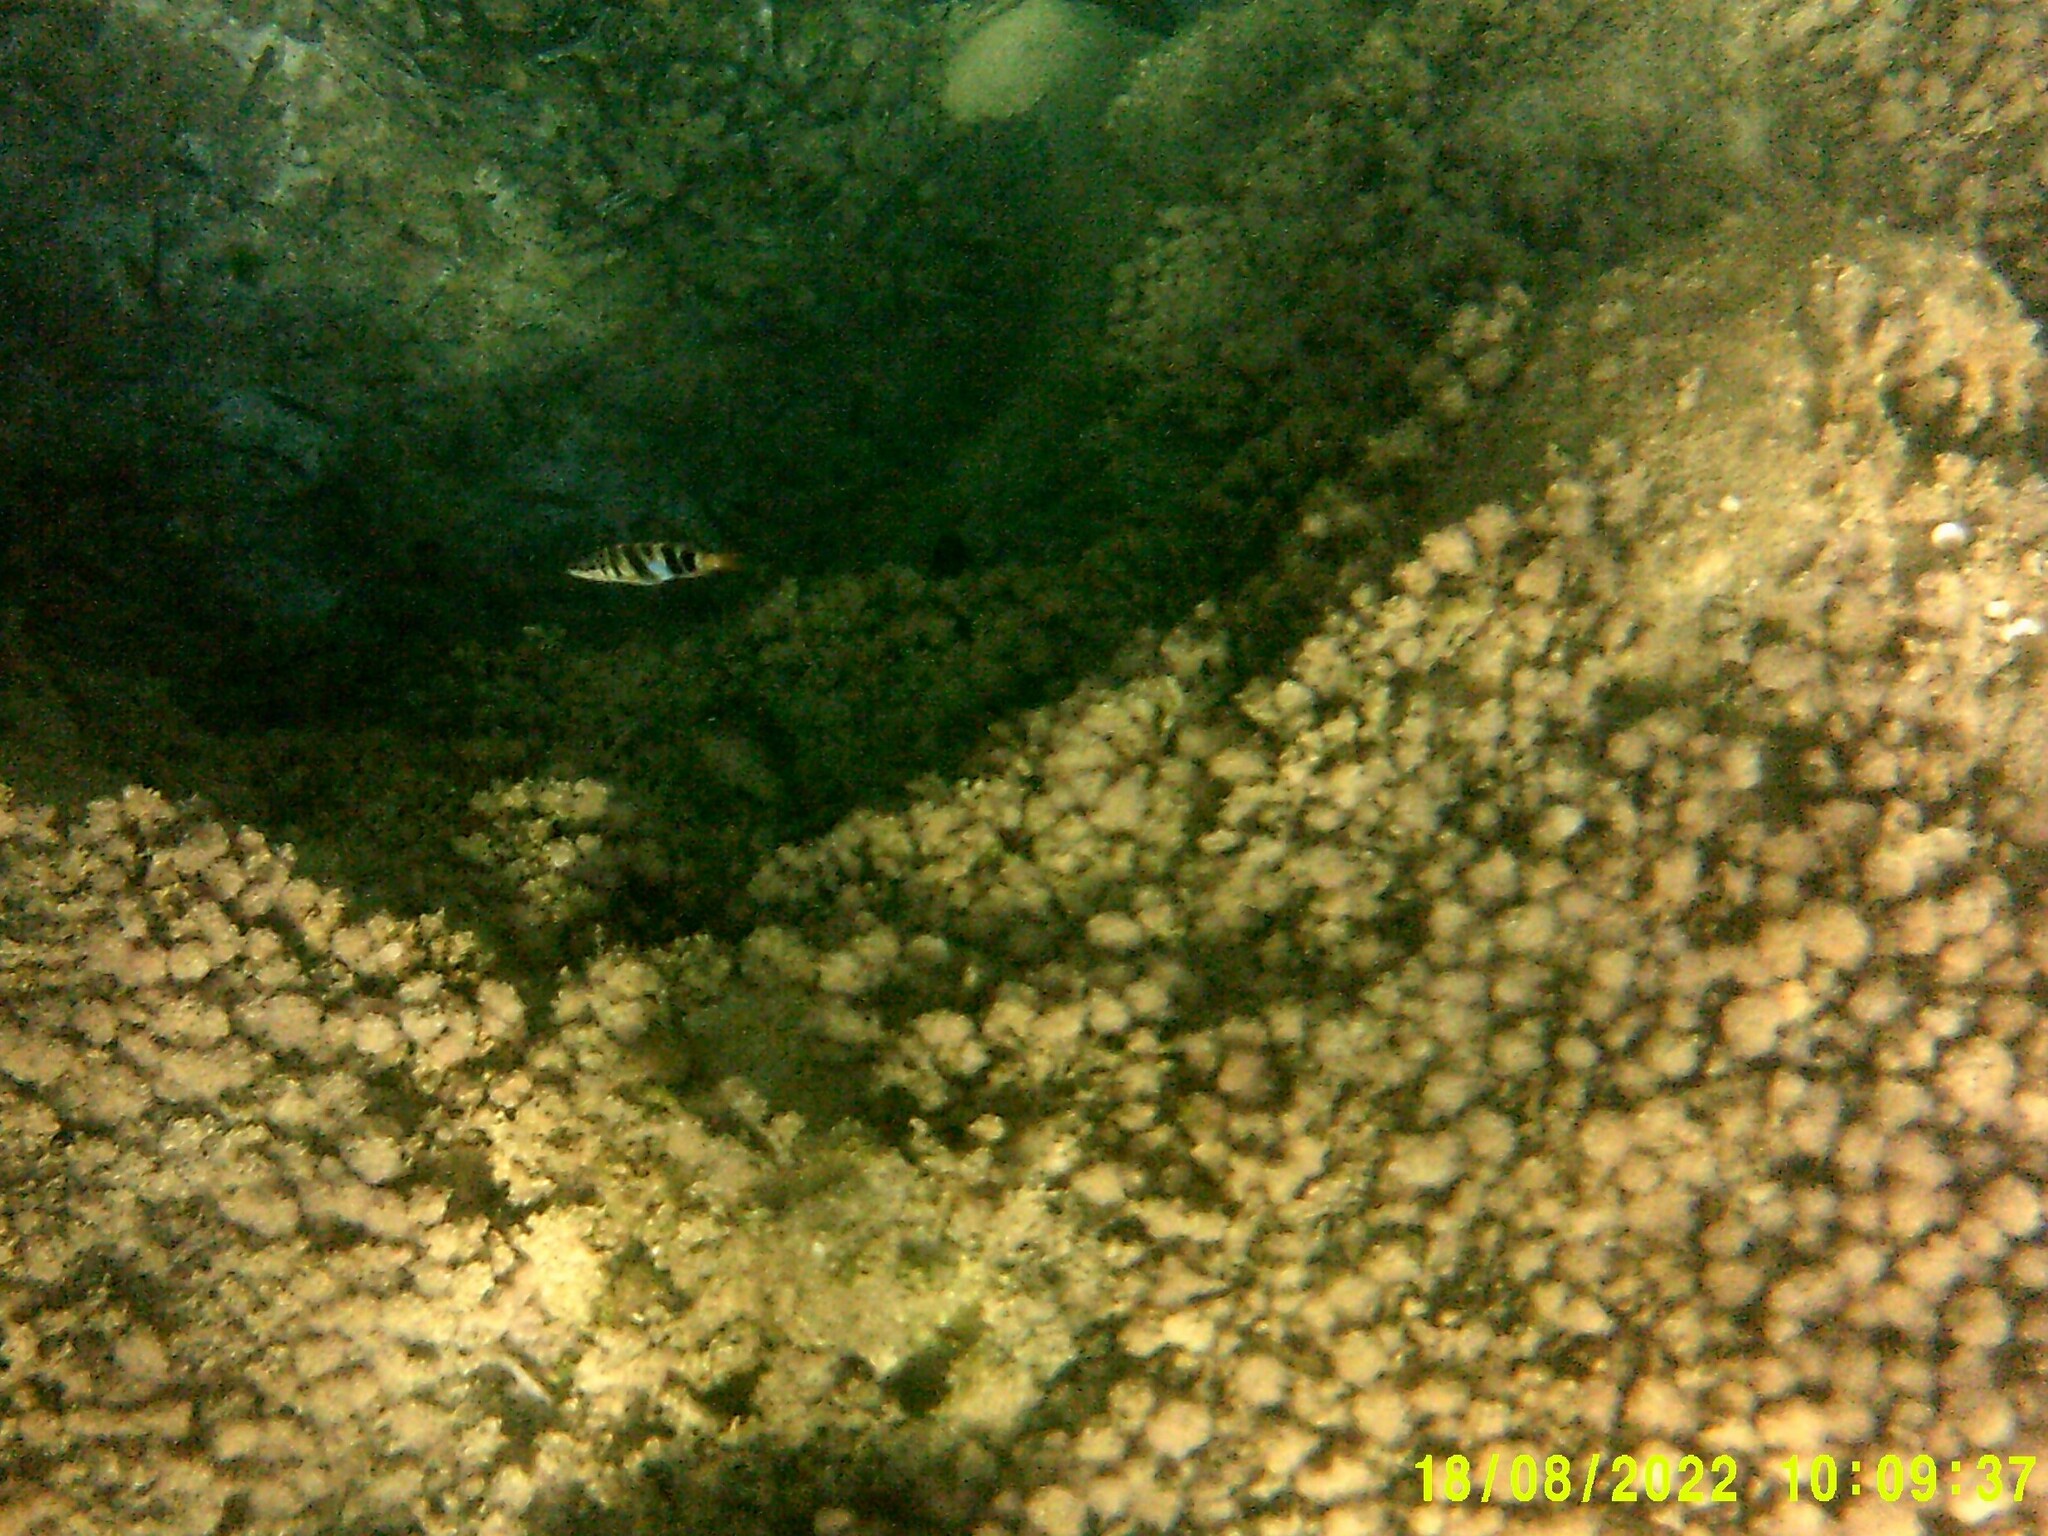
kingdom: Animalia
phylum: Chordata
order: Perciformes
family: Serranidae
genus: Serranus
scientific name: Serranus scriba
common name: Painted comber
